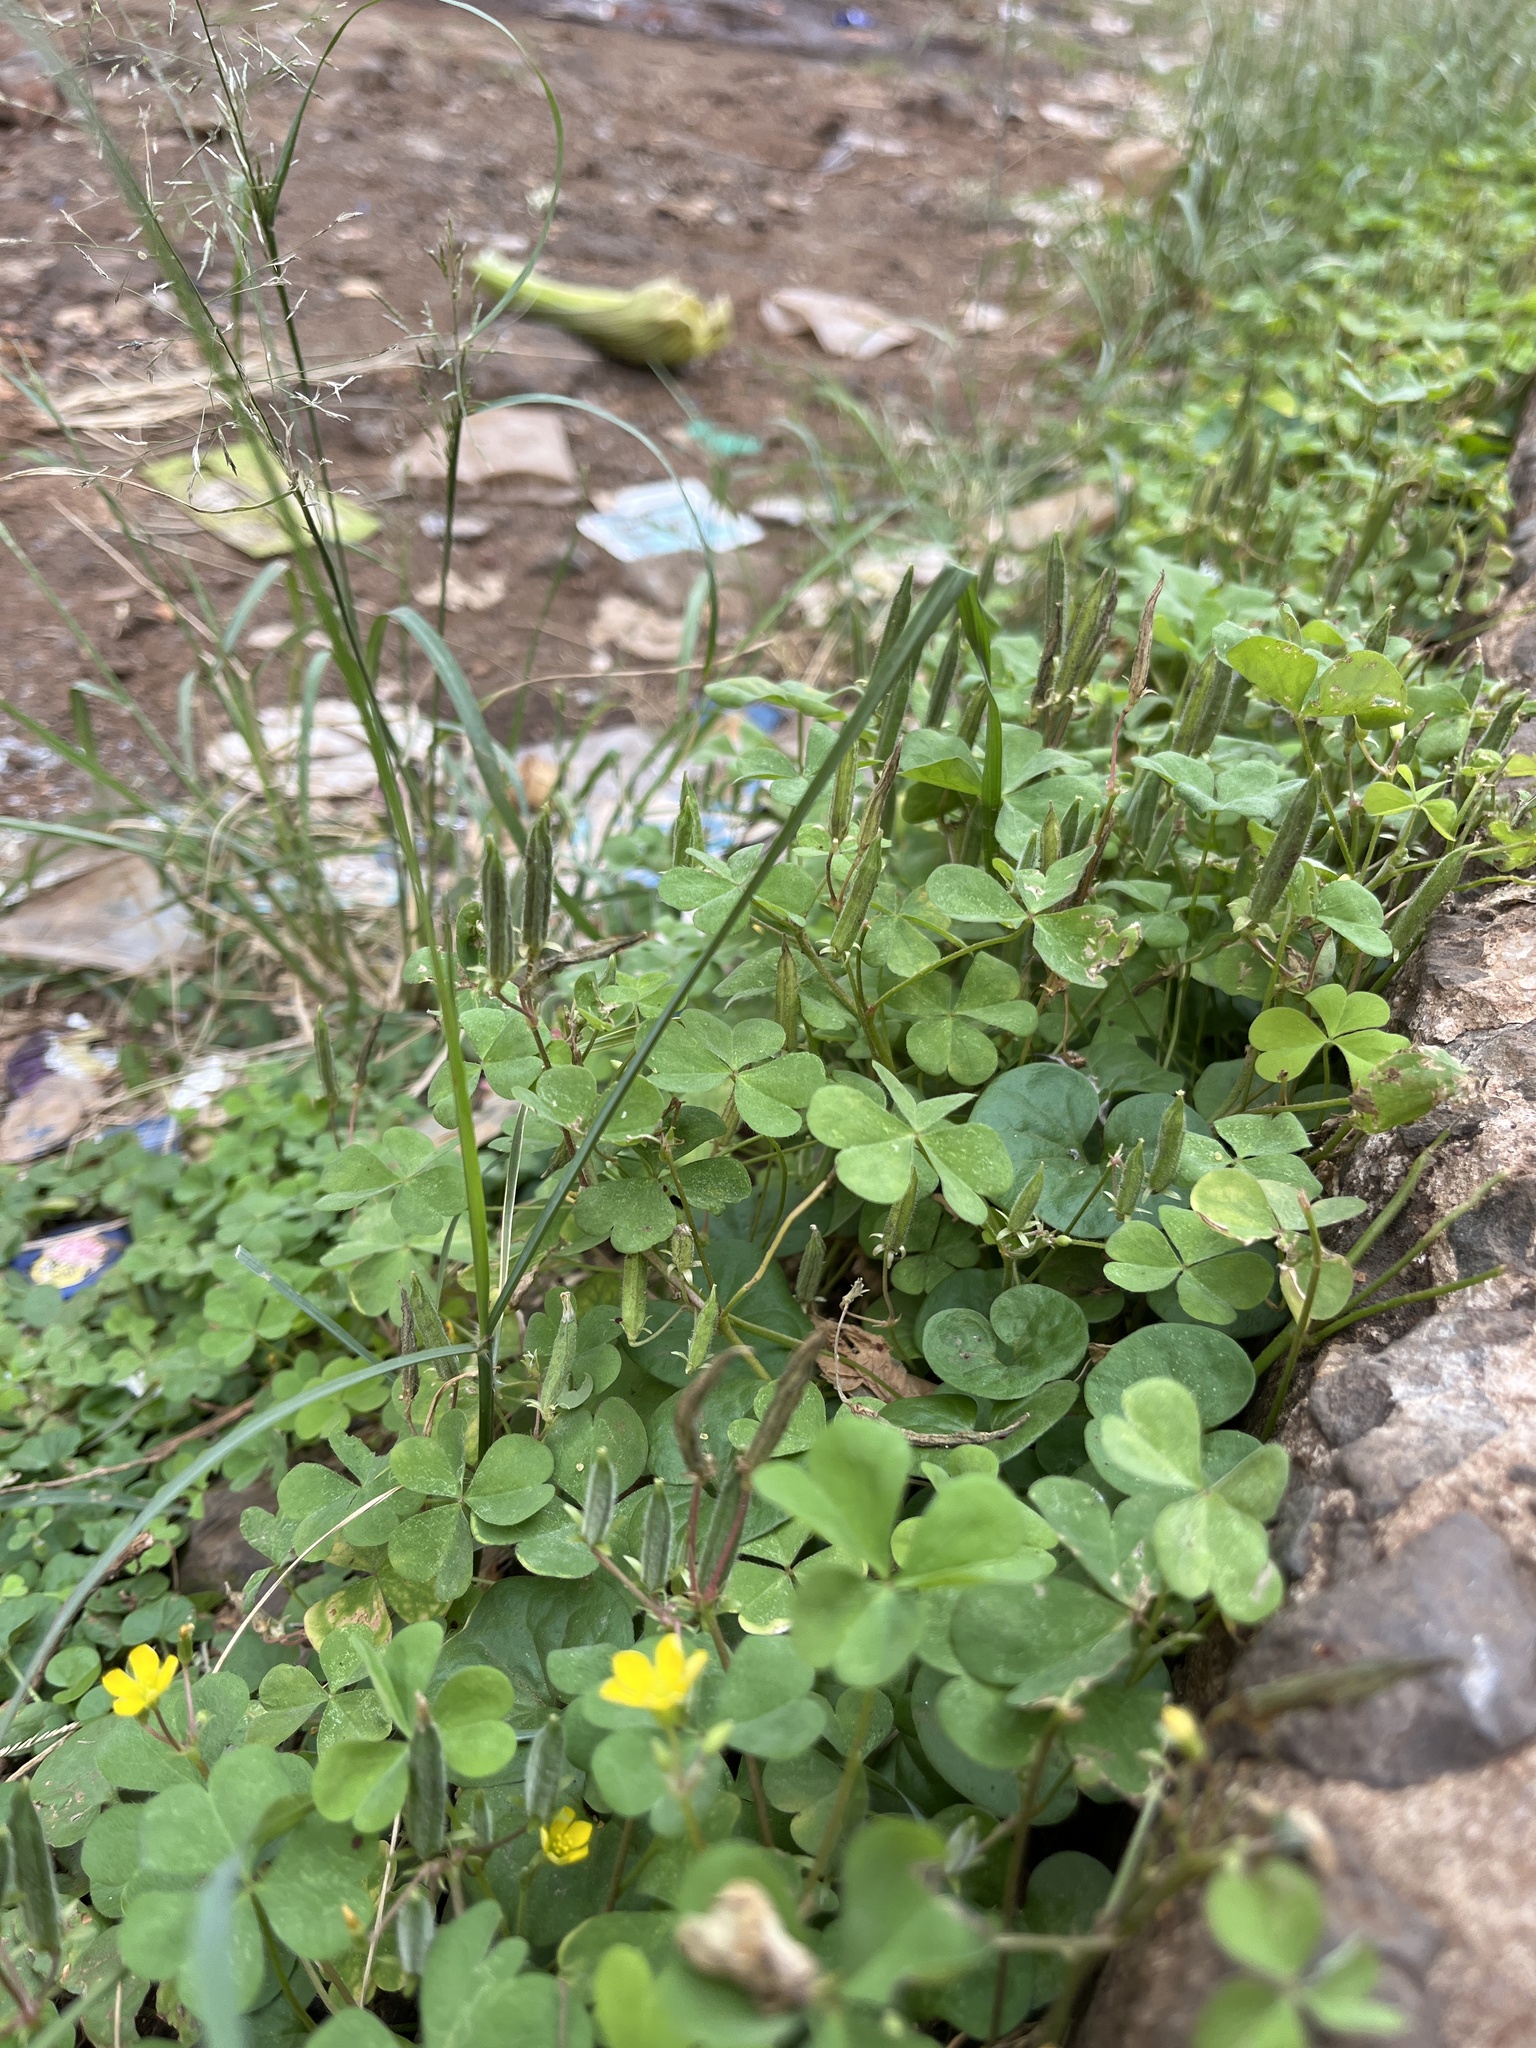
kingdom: Plantae
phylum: Tracheophyta
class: Magnoliopsida
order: Oxalidales
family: Oxalidaceae
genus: Oxalis
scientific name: Oxalis corniculata
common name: Procumbent yellow-sorrel
